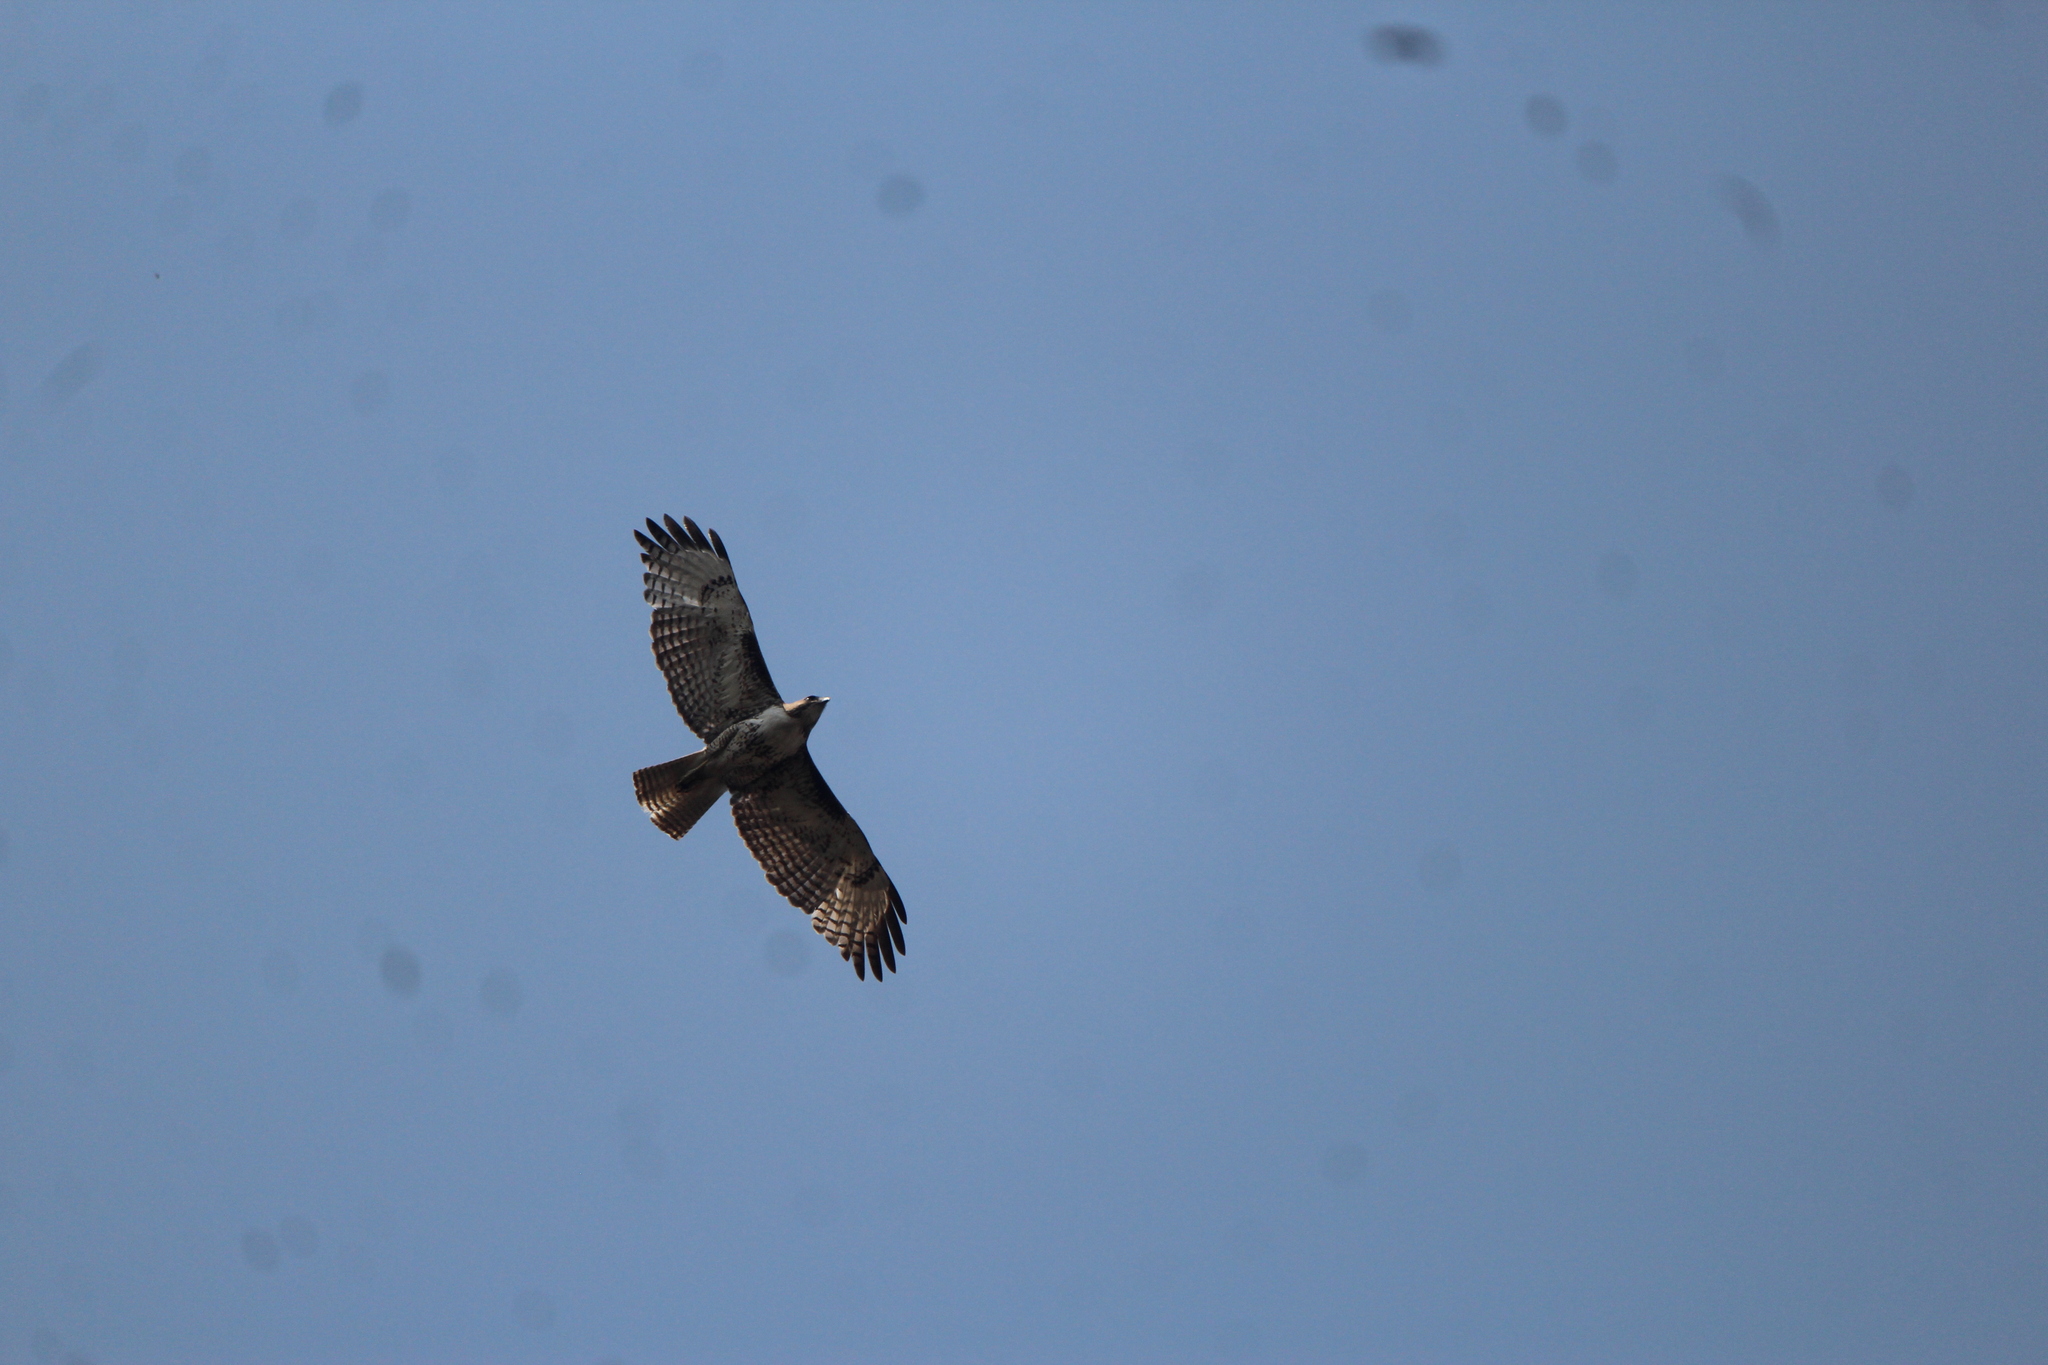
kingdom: Animalia
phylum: Chordata
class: Aves
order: Accipitriformes
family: Accipitridae
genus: Buteo
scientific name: Buteo jamaicensis
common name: Red-tailed hawk
